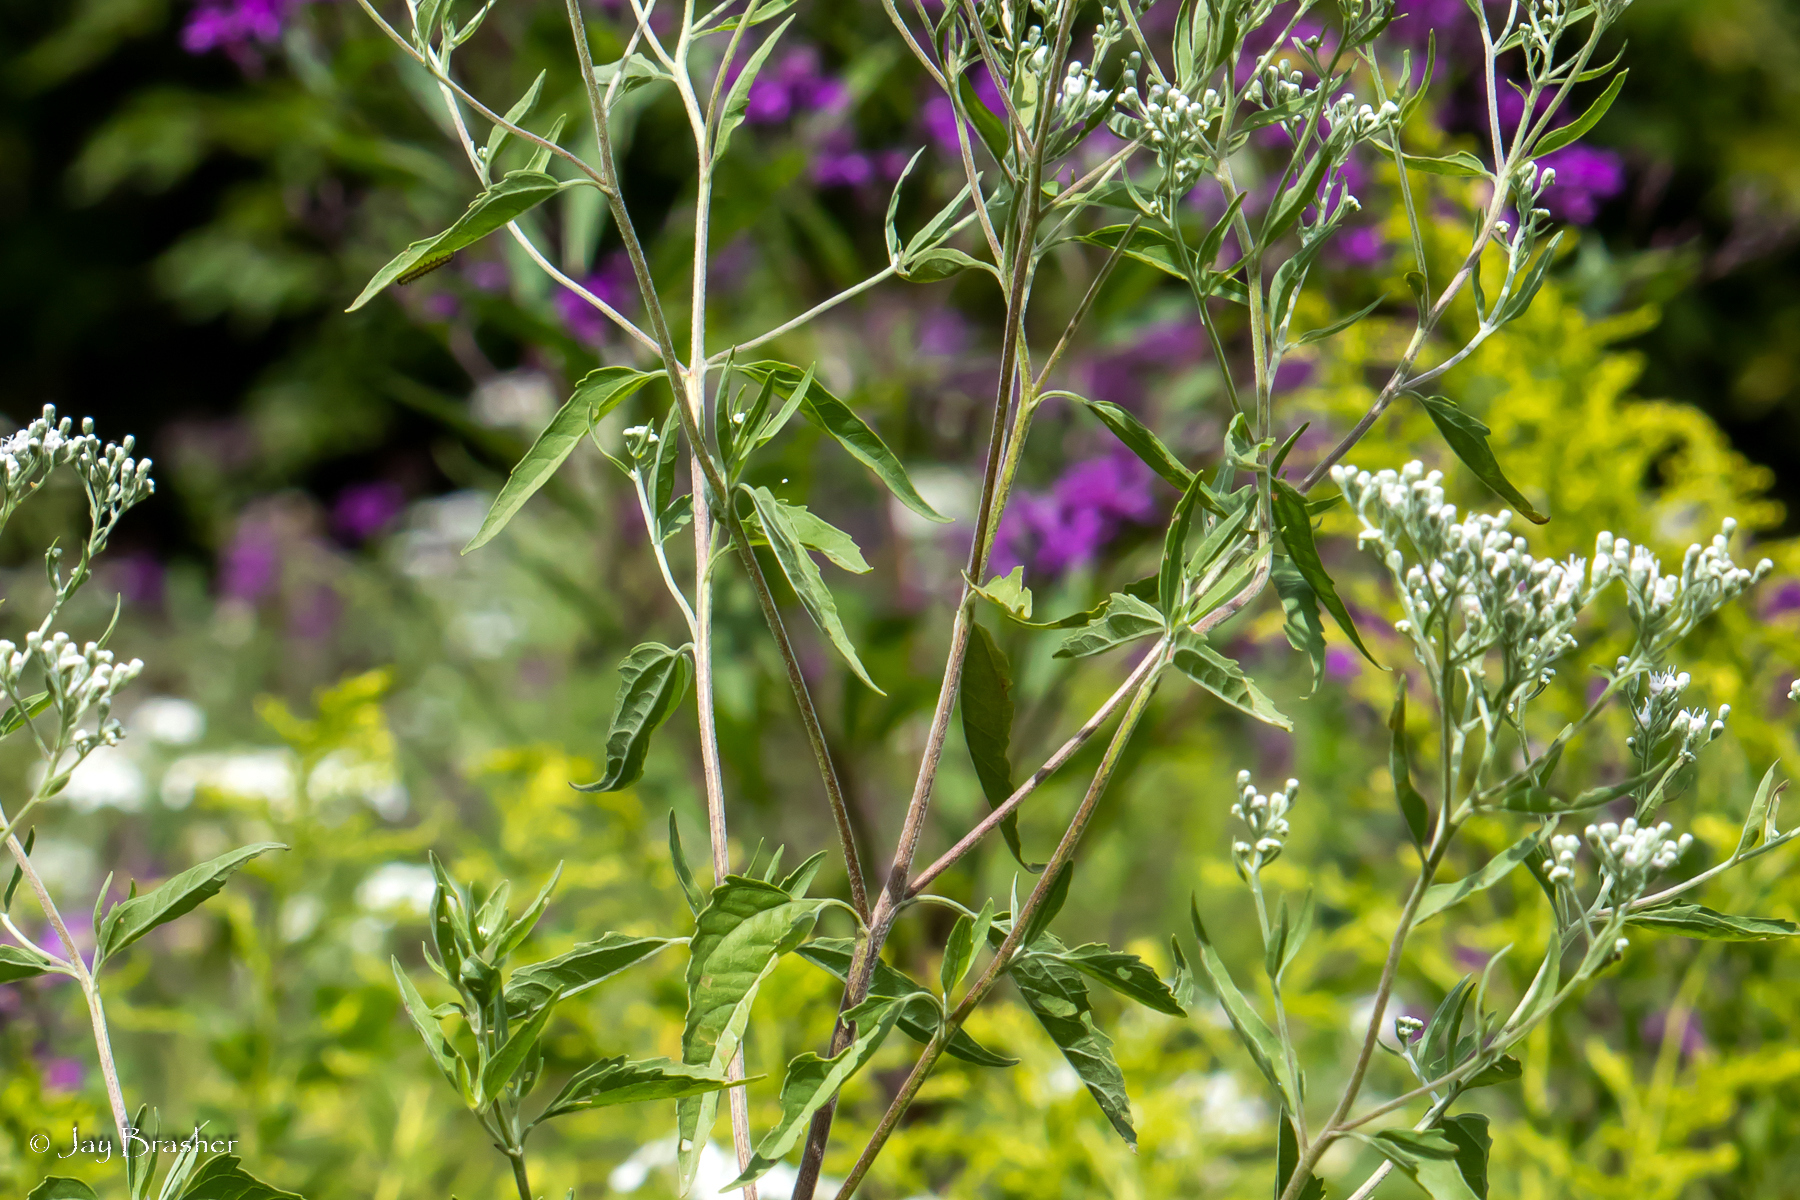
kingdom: Plantae
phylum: Tracheophyta
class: Magnoliopsida
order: Asterales
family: Asteraceae
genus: Eupatorium
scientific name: Eupatorium serotinum
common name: Late boneset
